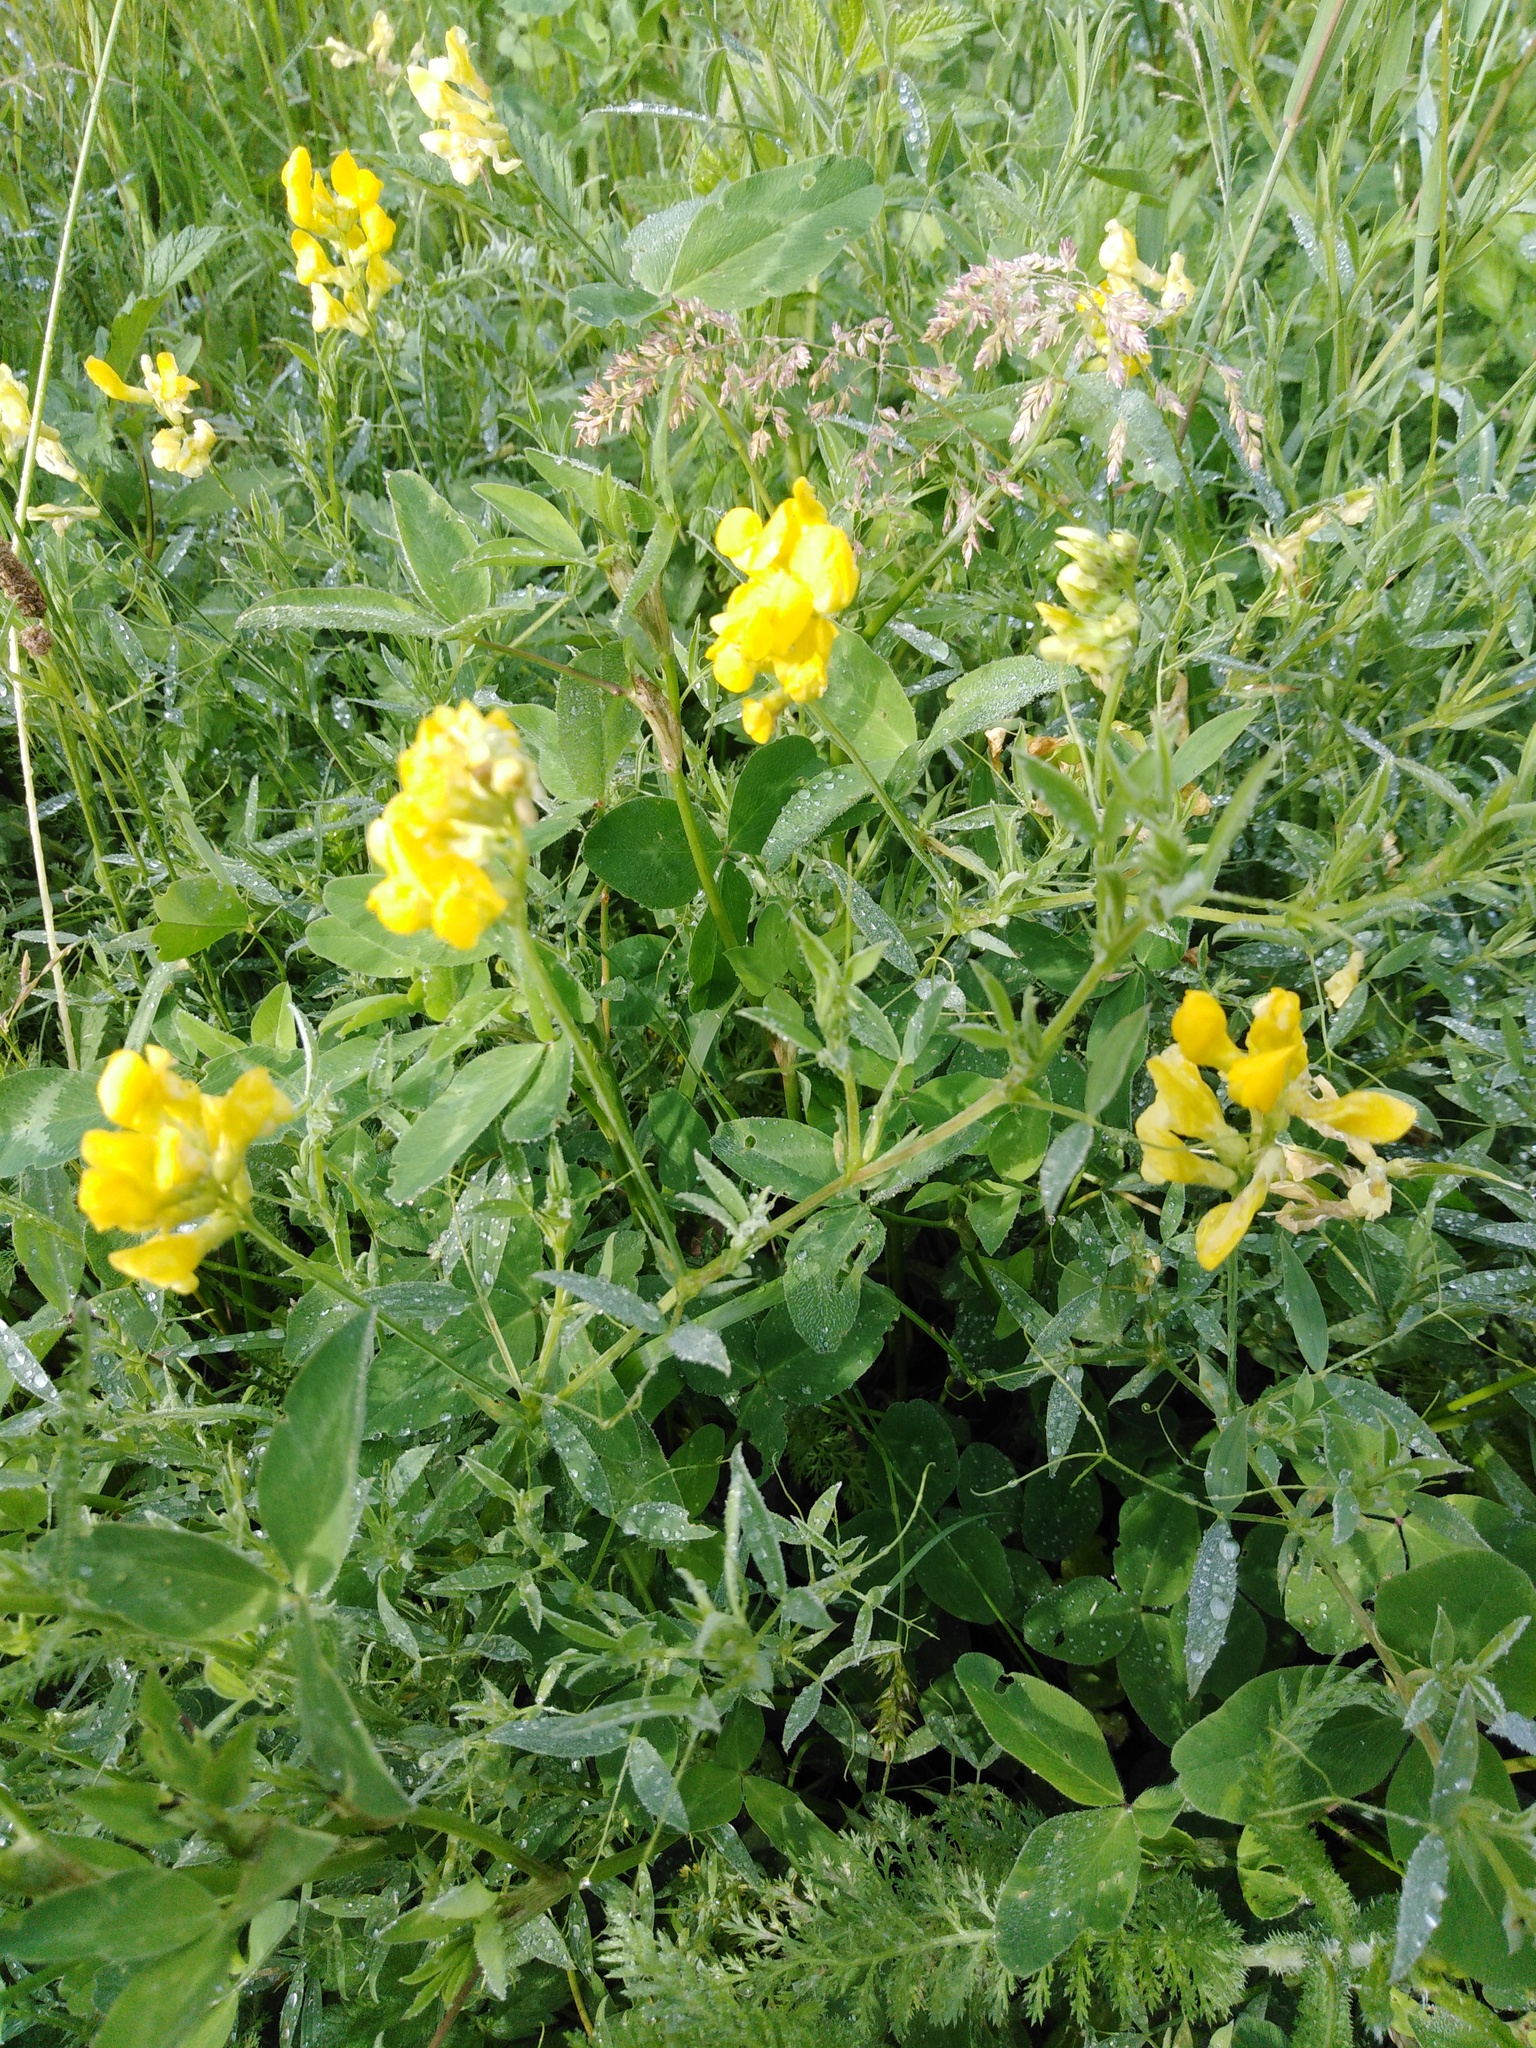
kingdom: Plantae
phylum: Tracheophyta
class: Magnoliopsida
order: Fabales
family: Fabaceae
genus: Lathyrus
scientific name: Lathyrus pratensis
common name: Meadow vetchling
